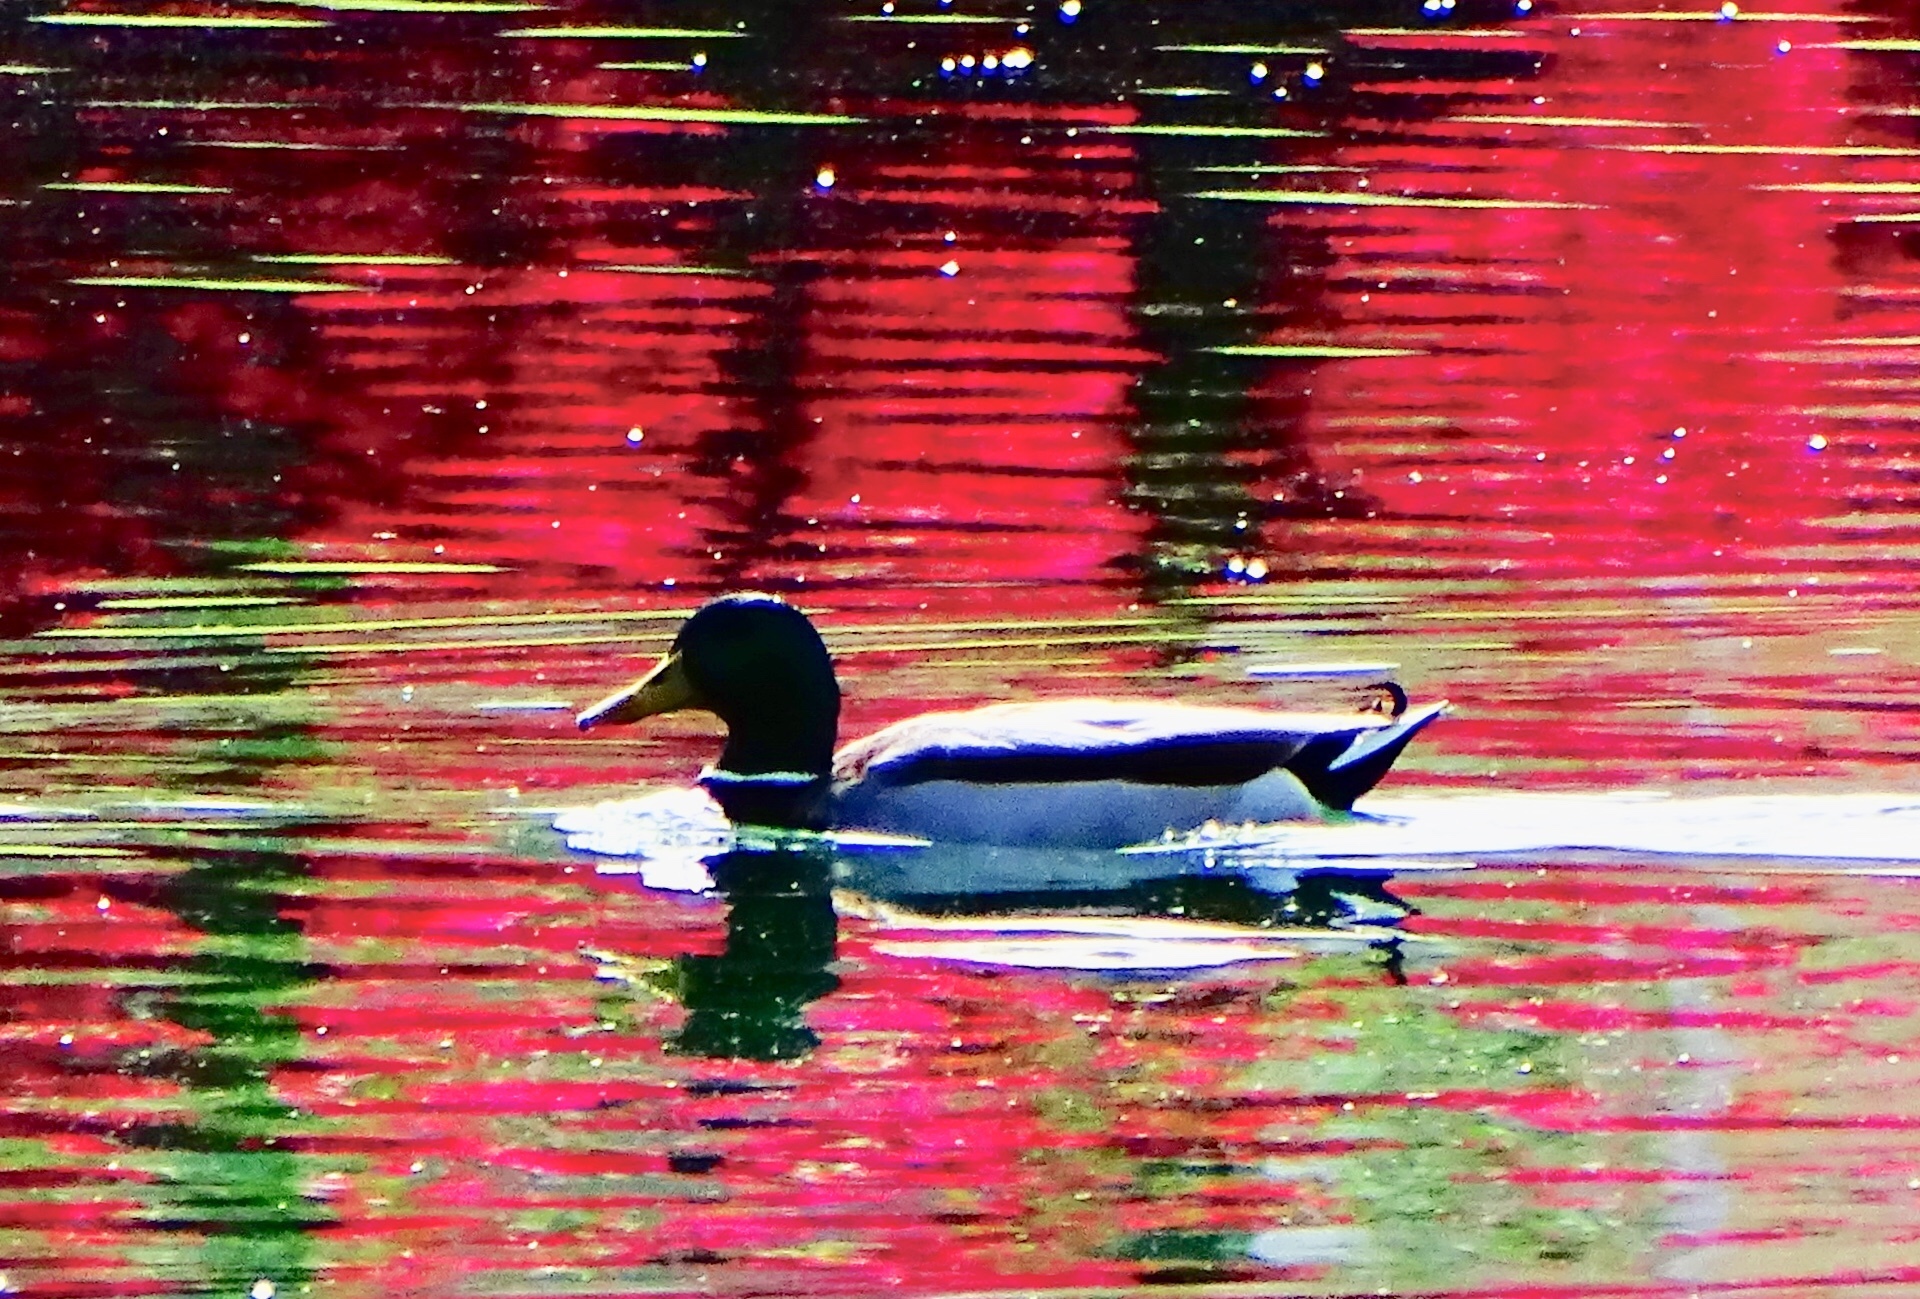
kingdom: Animalia
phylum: Chordata
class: Aves
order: Anseriformes
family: Anatidae
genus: Anas
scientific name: Anas platyrhynchos
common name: Mallard
